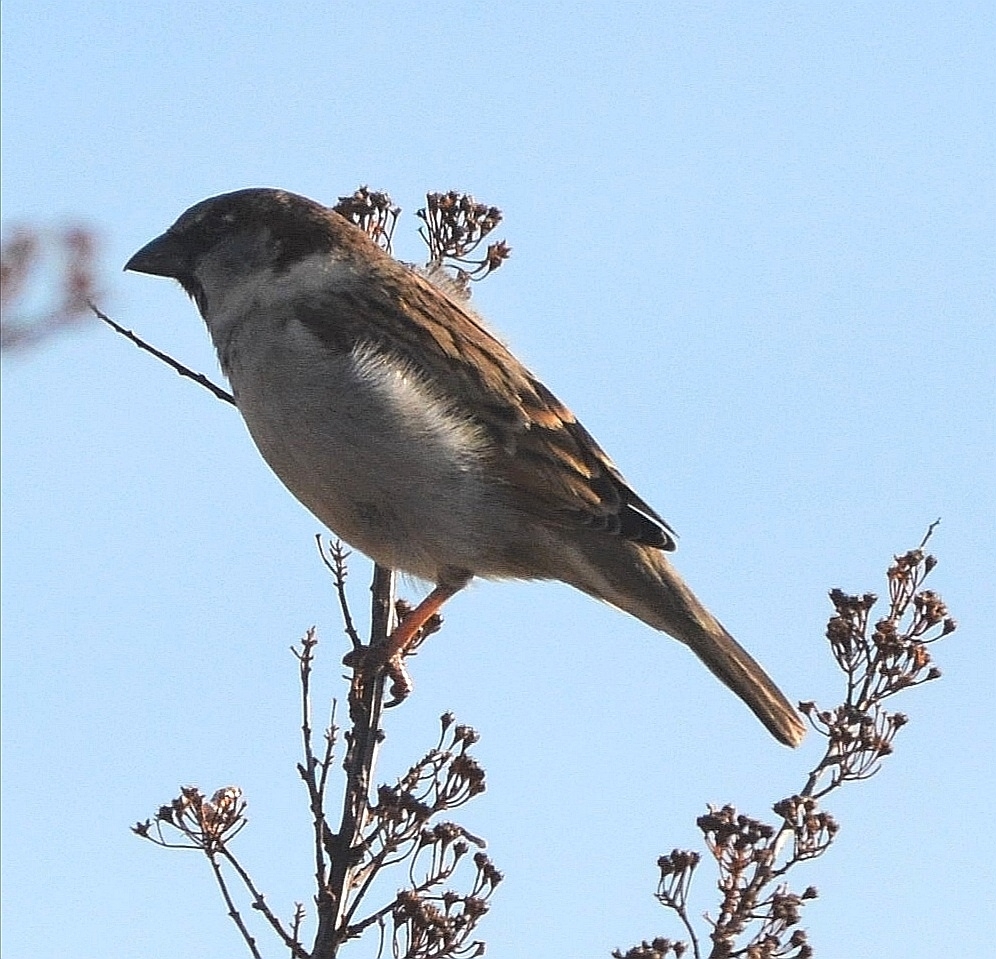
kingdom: Animalia
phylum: Chordata
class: Aves
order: Passeriformes
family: Passeridae
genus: Passer
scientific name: Passer domesticus
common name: House sparrow
